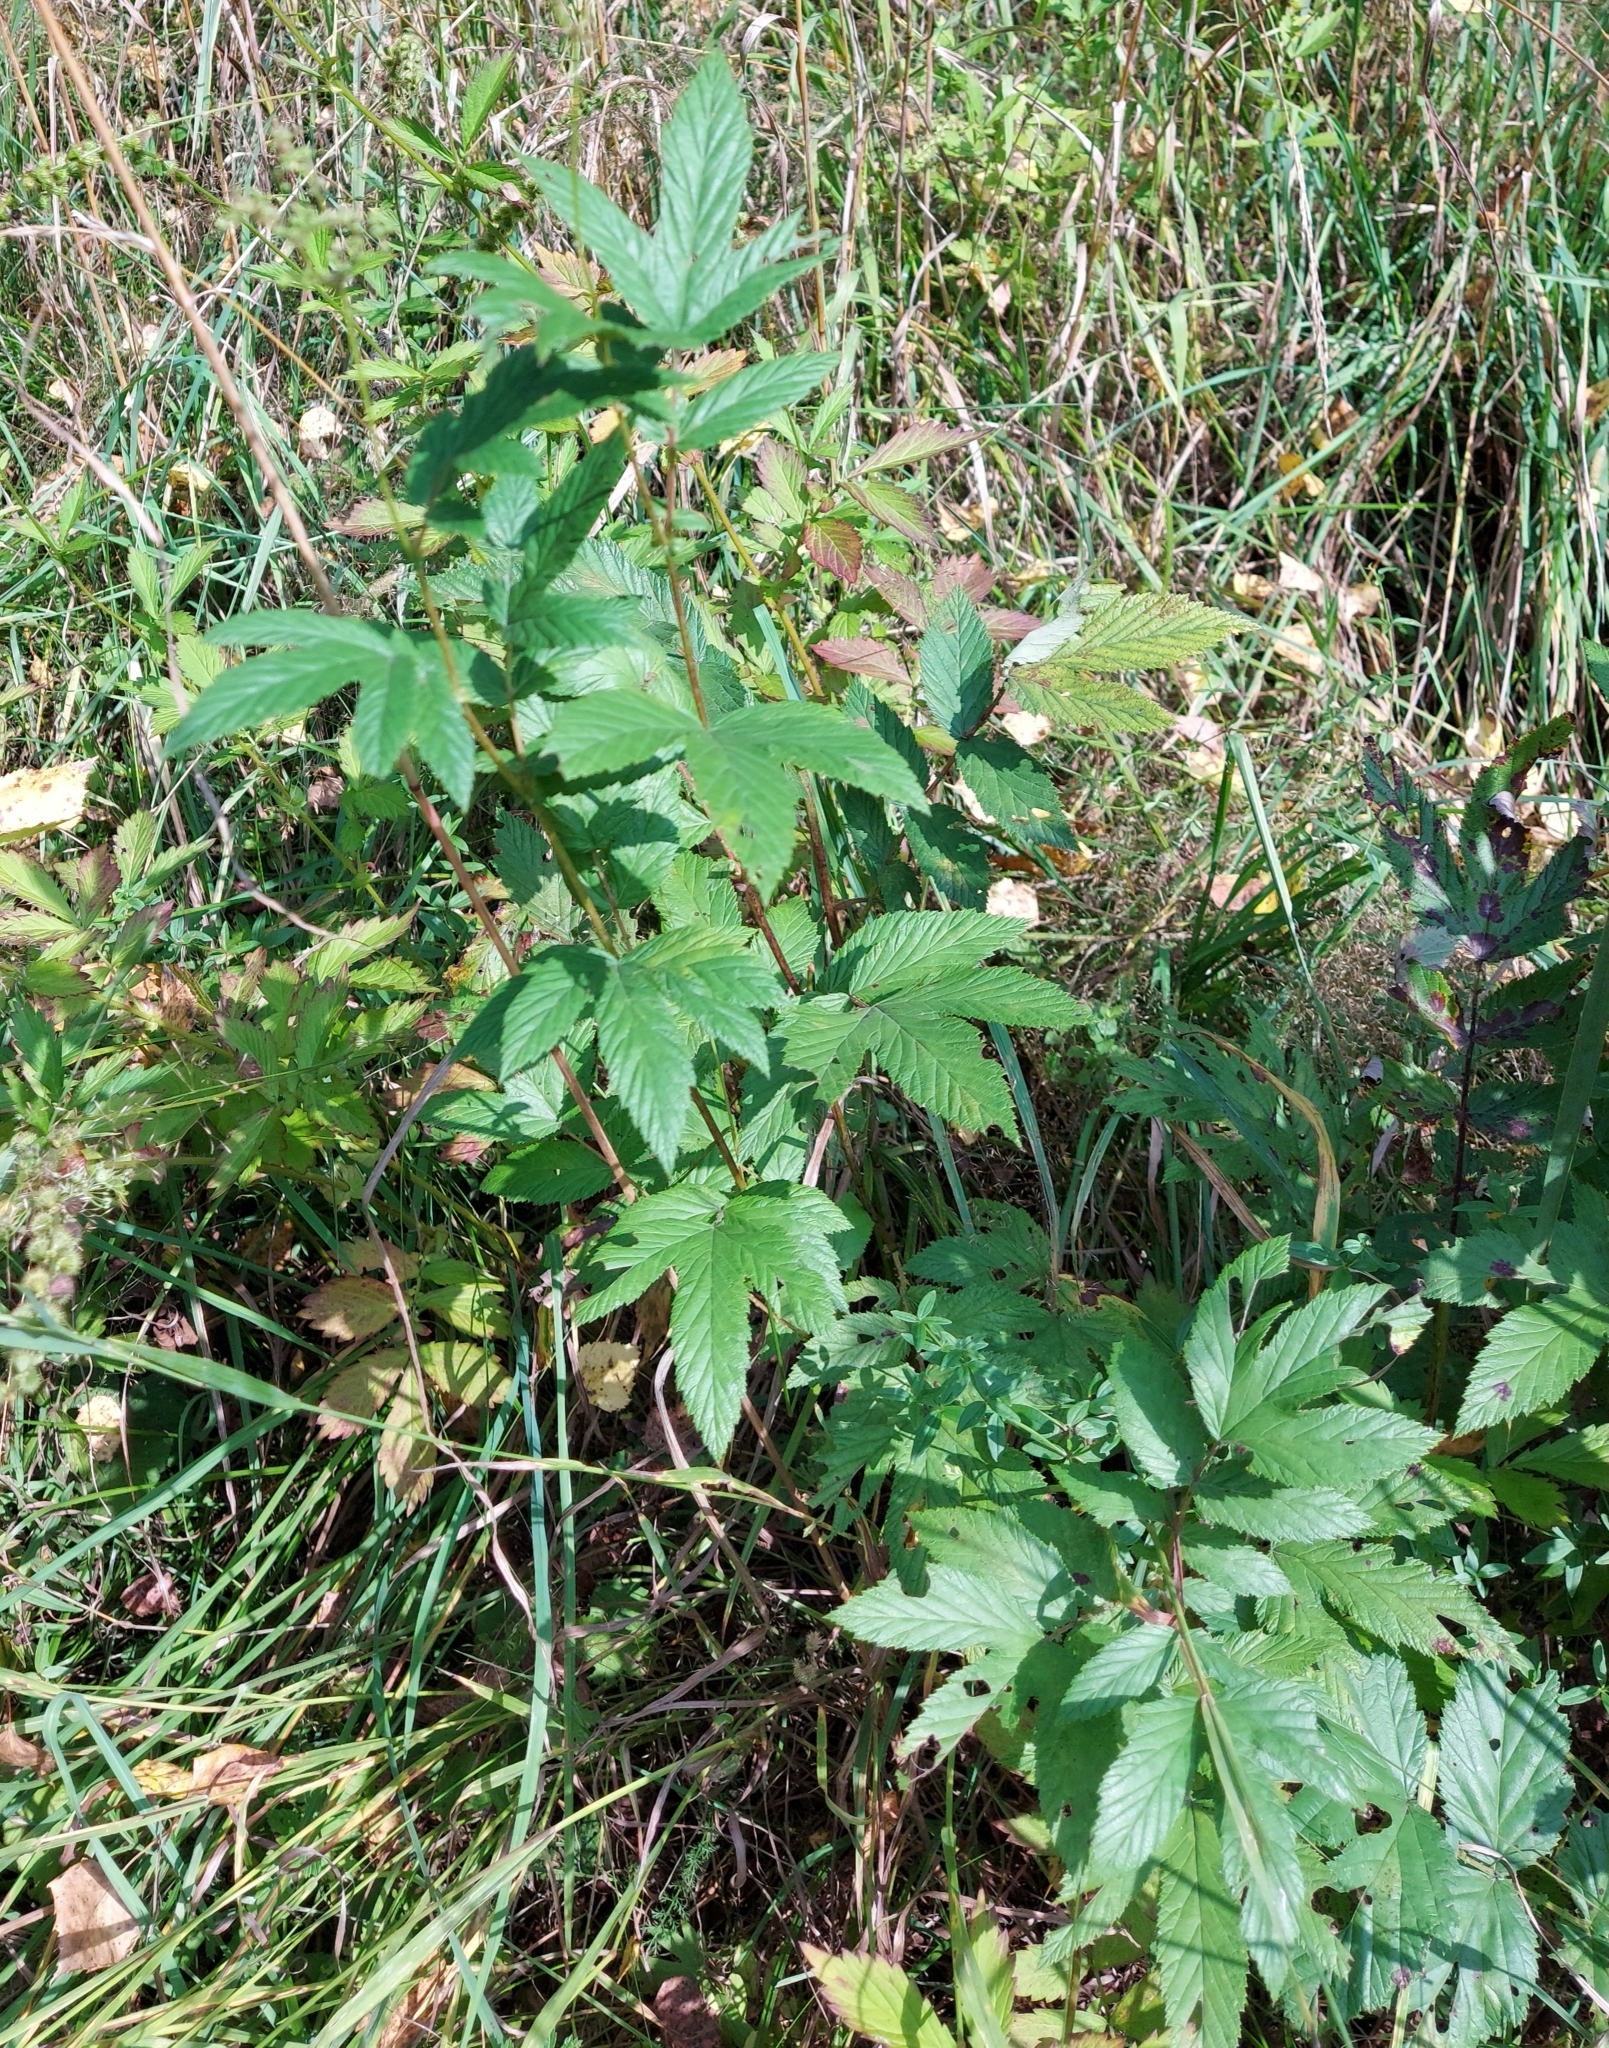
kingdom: Plantae
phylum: Tracheophyta
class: Magnoliopsida
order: Rosales
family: Rosaceae
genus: Filipendula
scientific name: Filipendula ulmaria
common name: Meadowsweet
